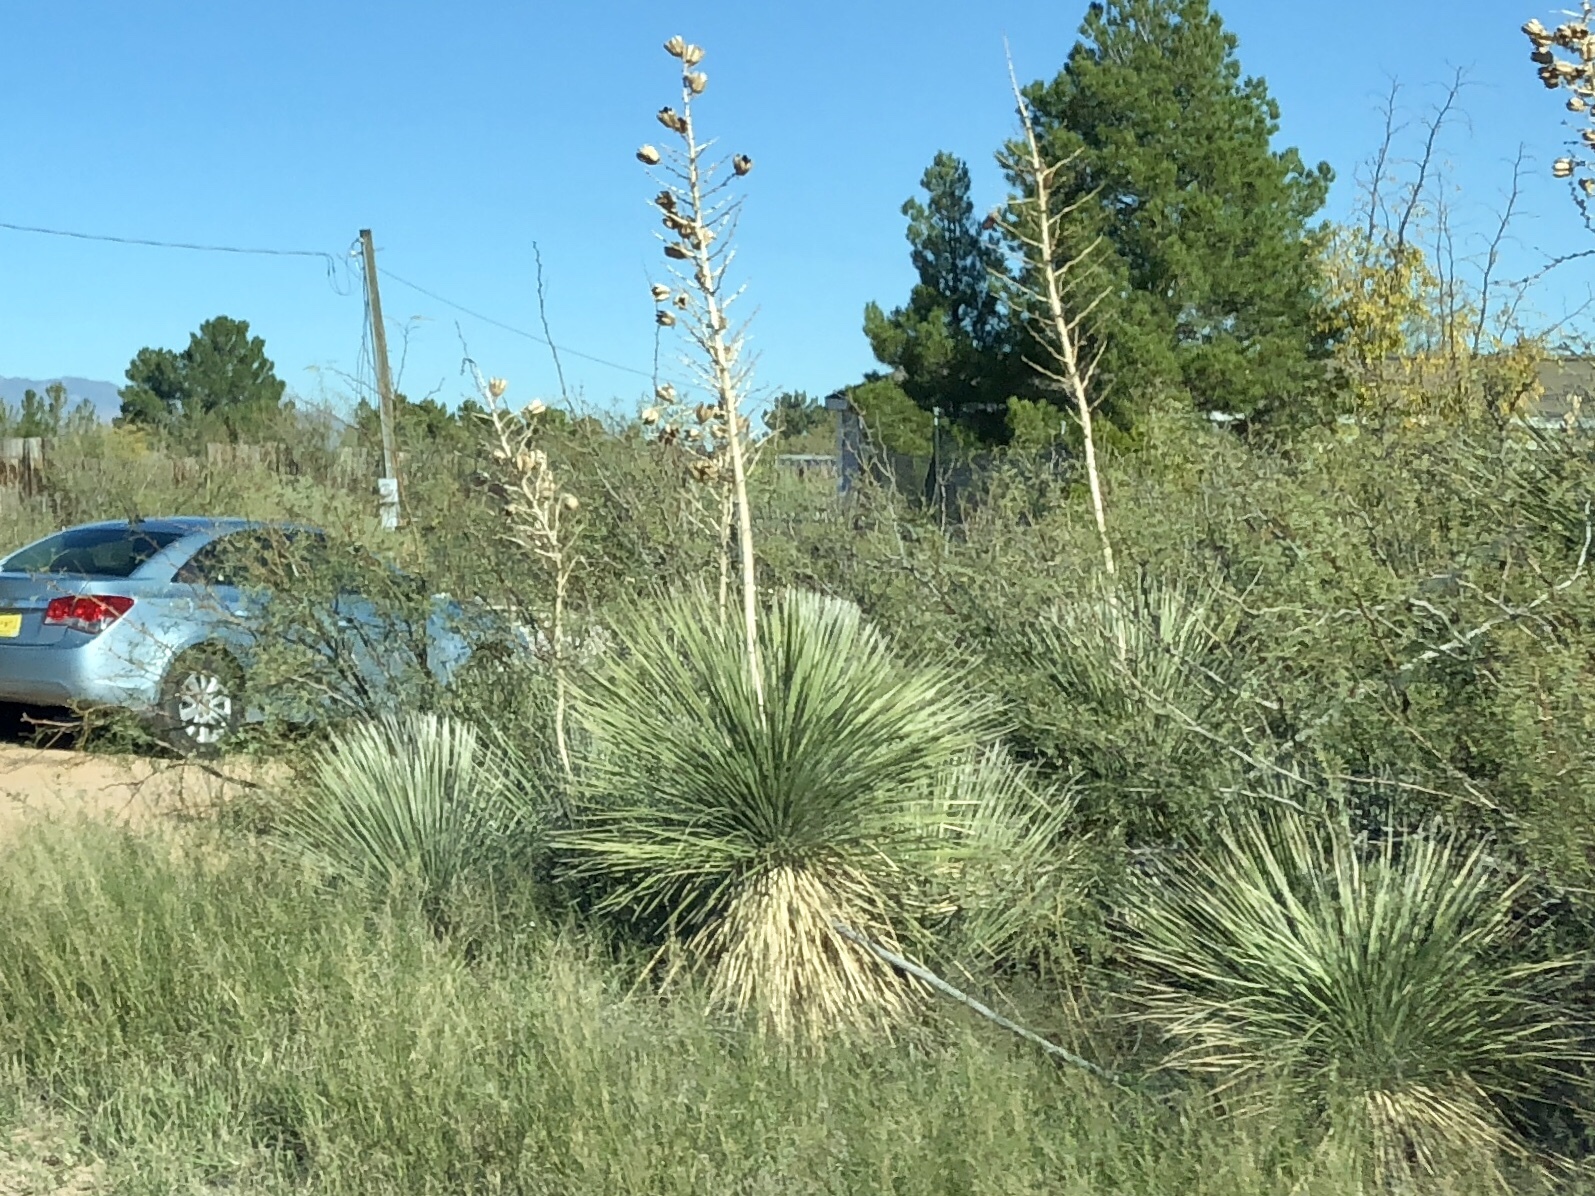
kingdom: Plantae
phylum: Tracheophyta
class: Liliopsida
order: Asparagales
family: Asparagaceae
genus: Yucca
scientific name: Yucca elata
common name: Palmella
